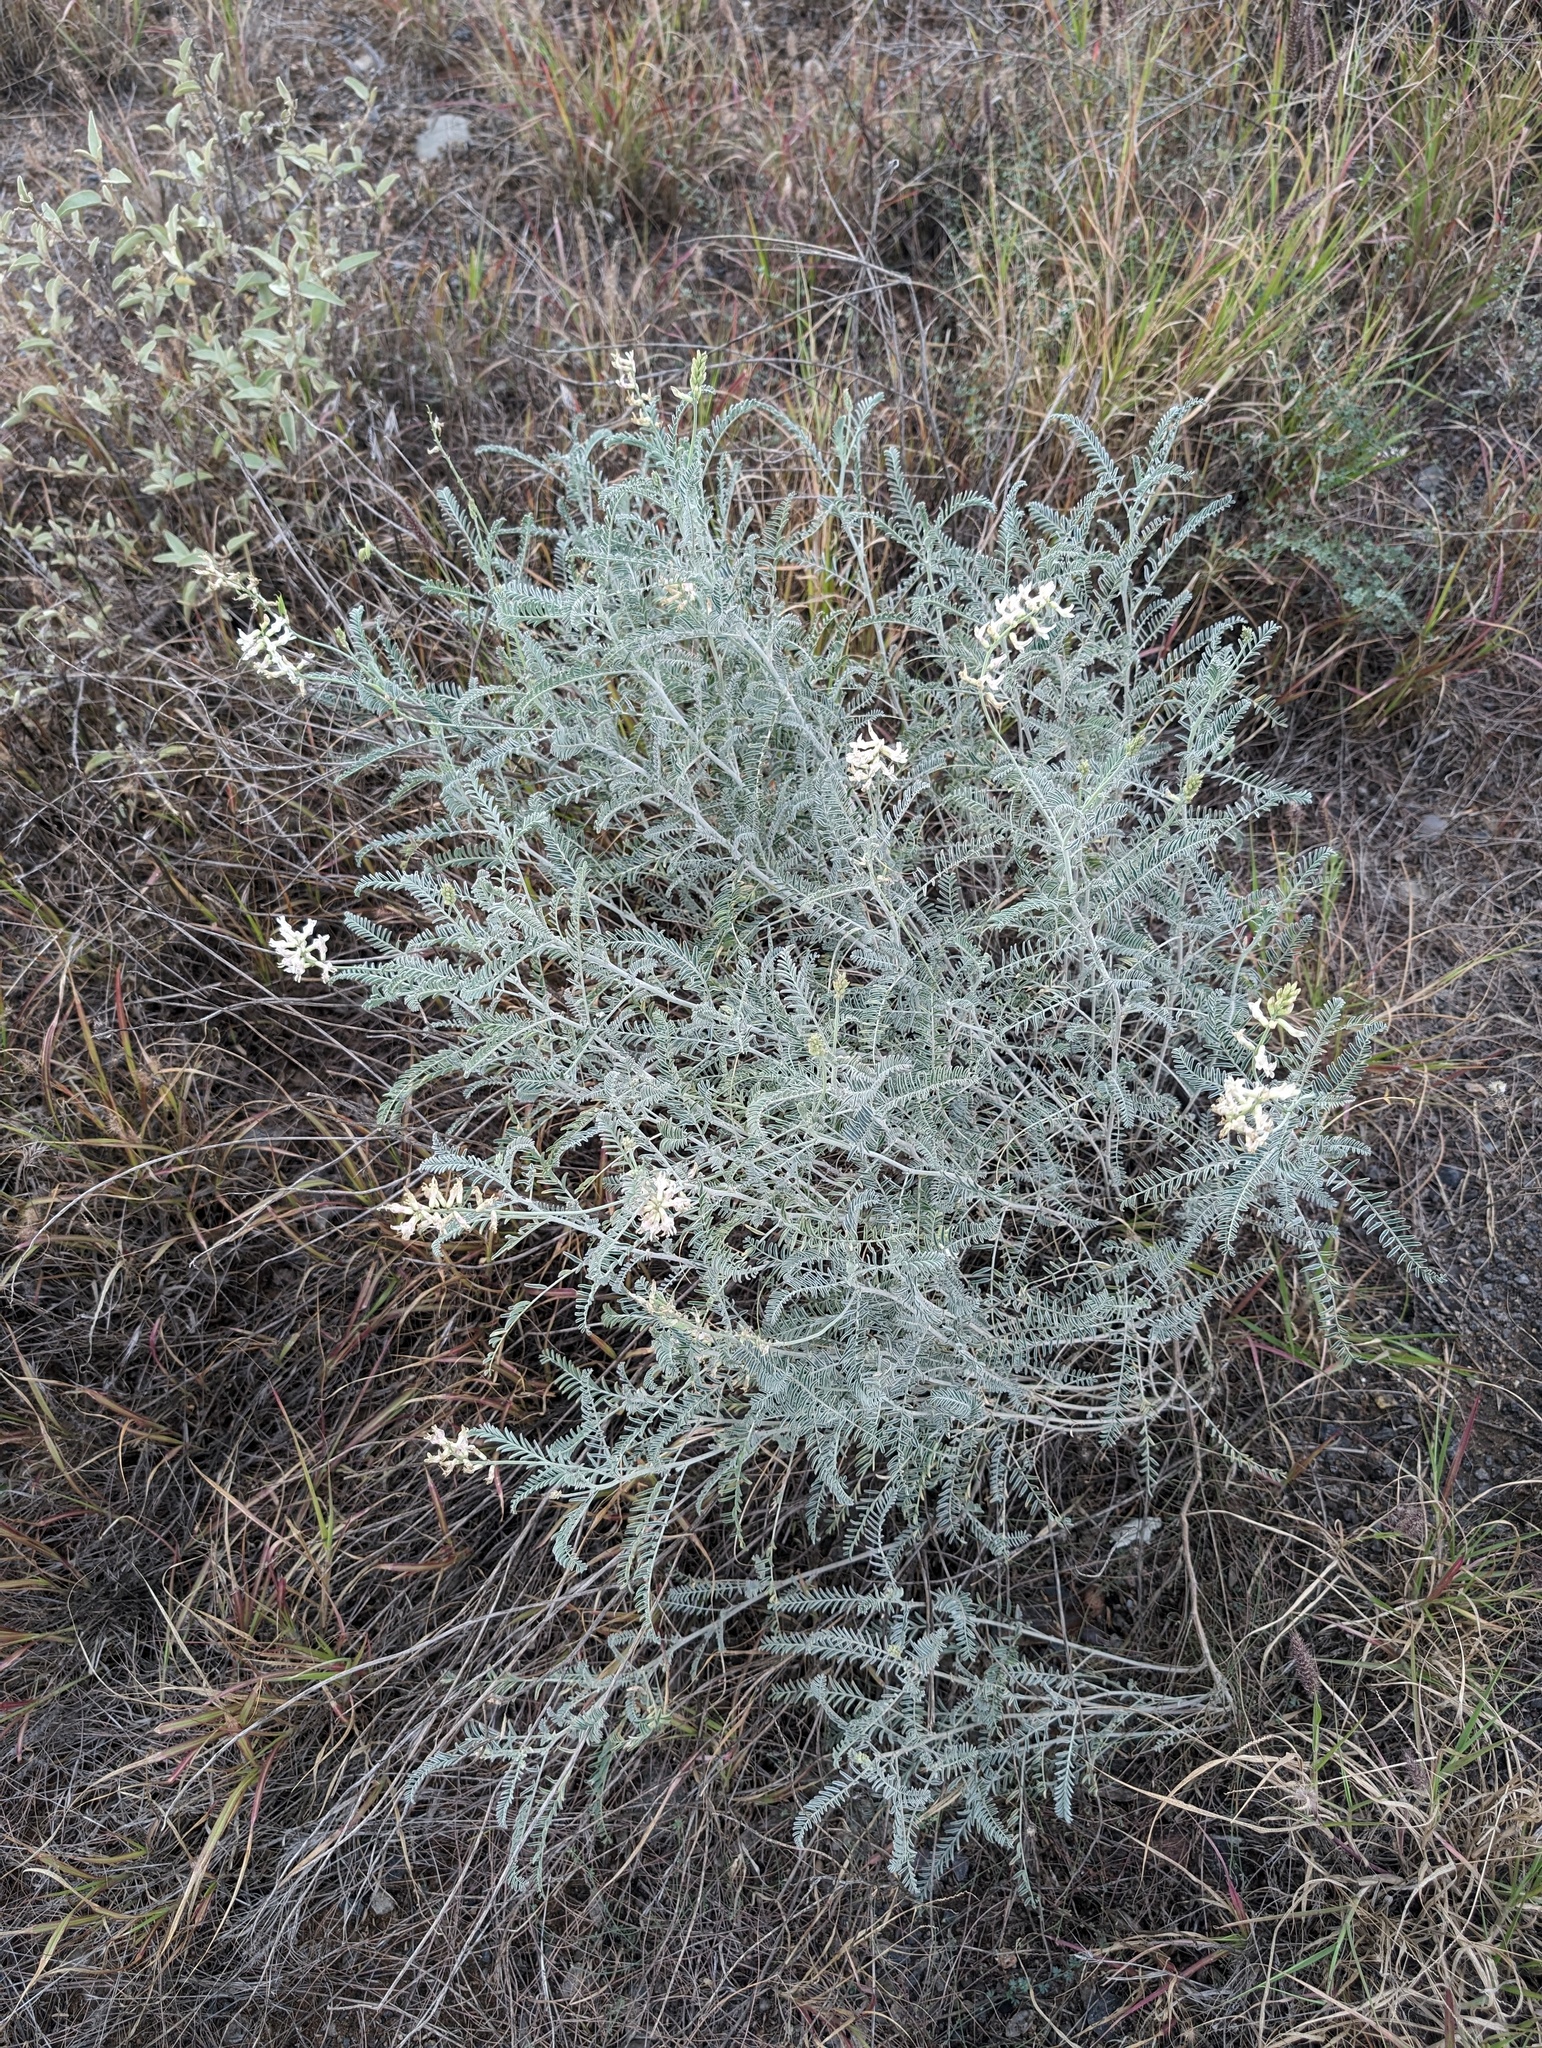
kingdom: Plantae
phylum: Tracheophyta
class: Magnoliopsida
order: Fabales
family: Fabaceae
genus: Astragalus
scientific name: Astragalus trichopodus
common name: Santa barbara milk-vetch
